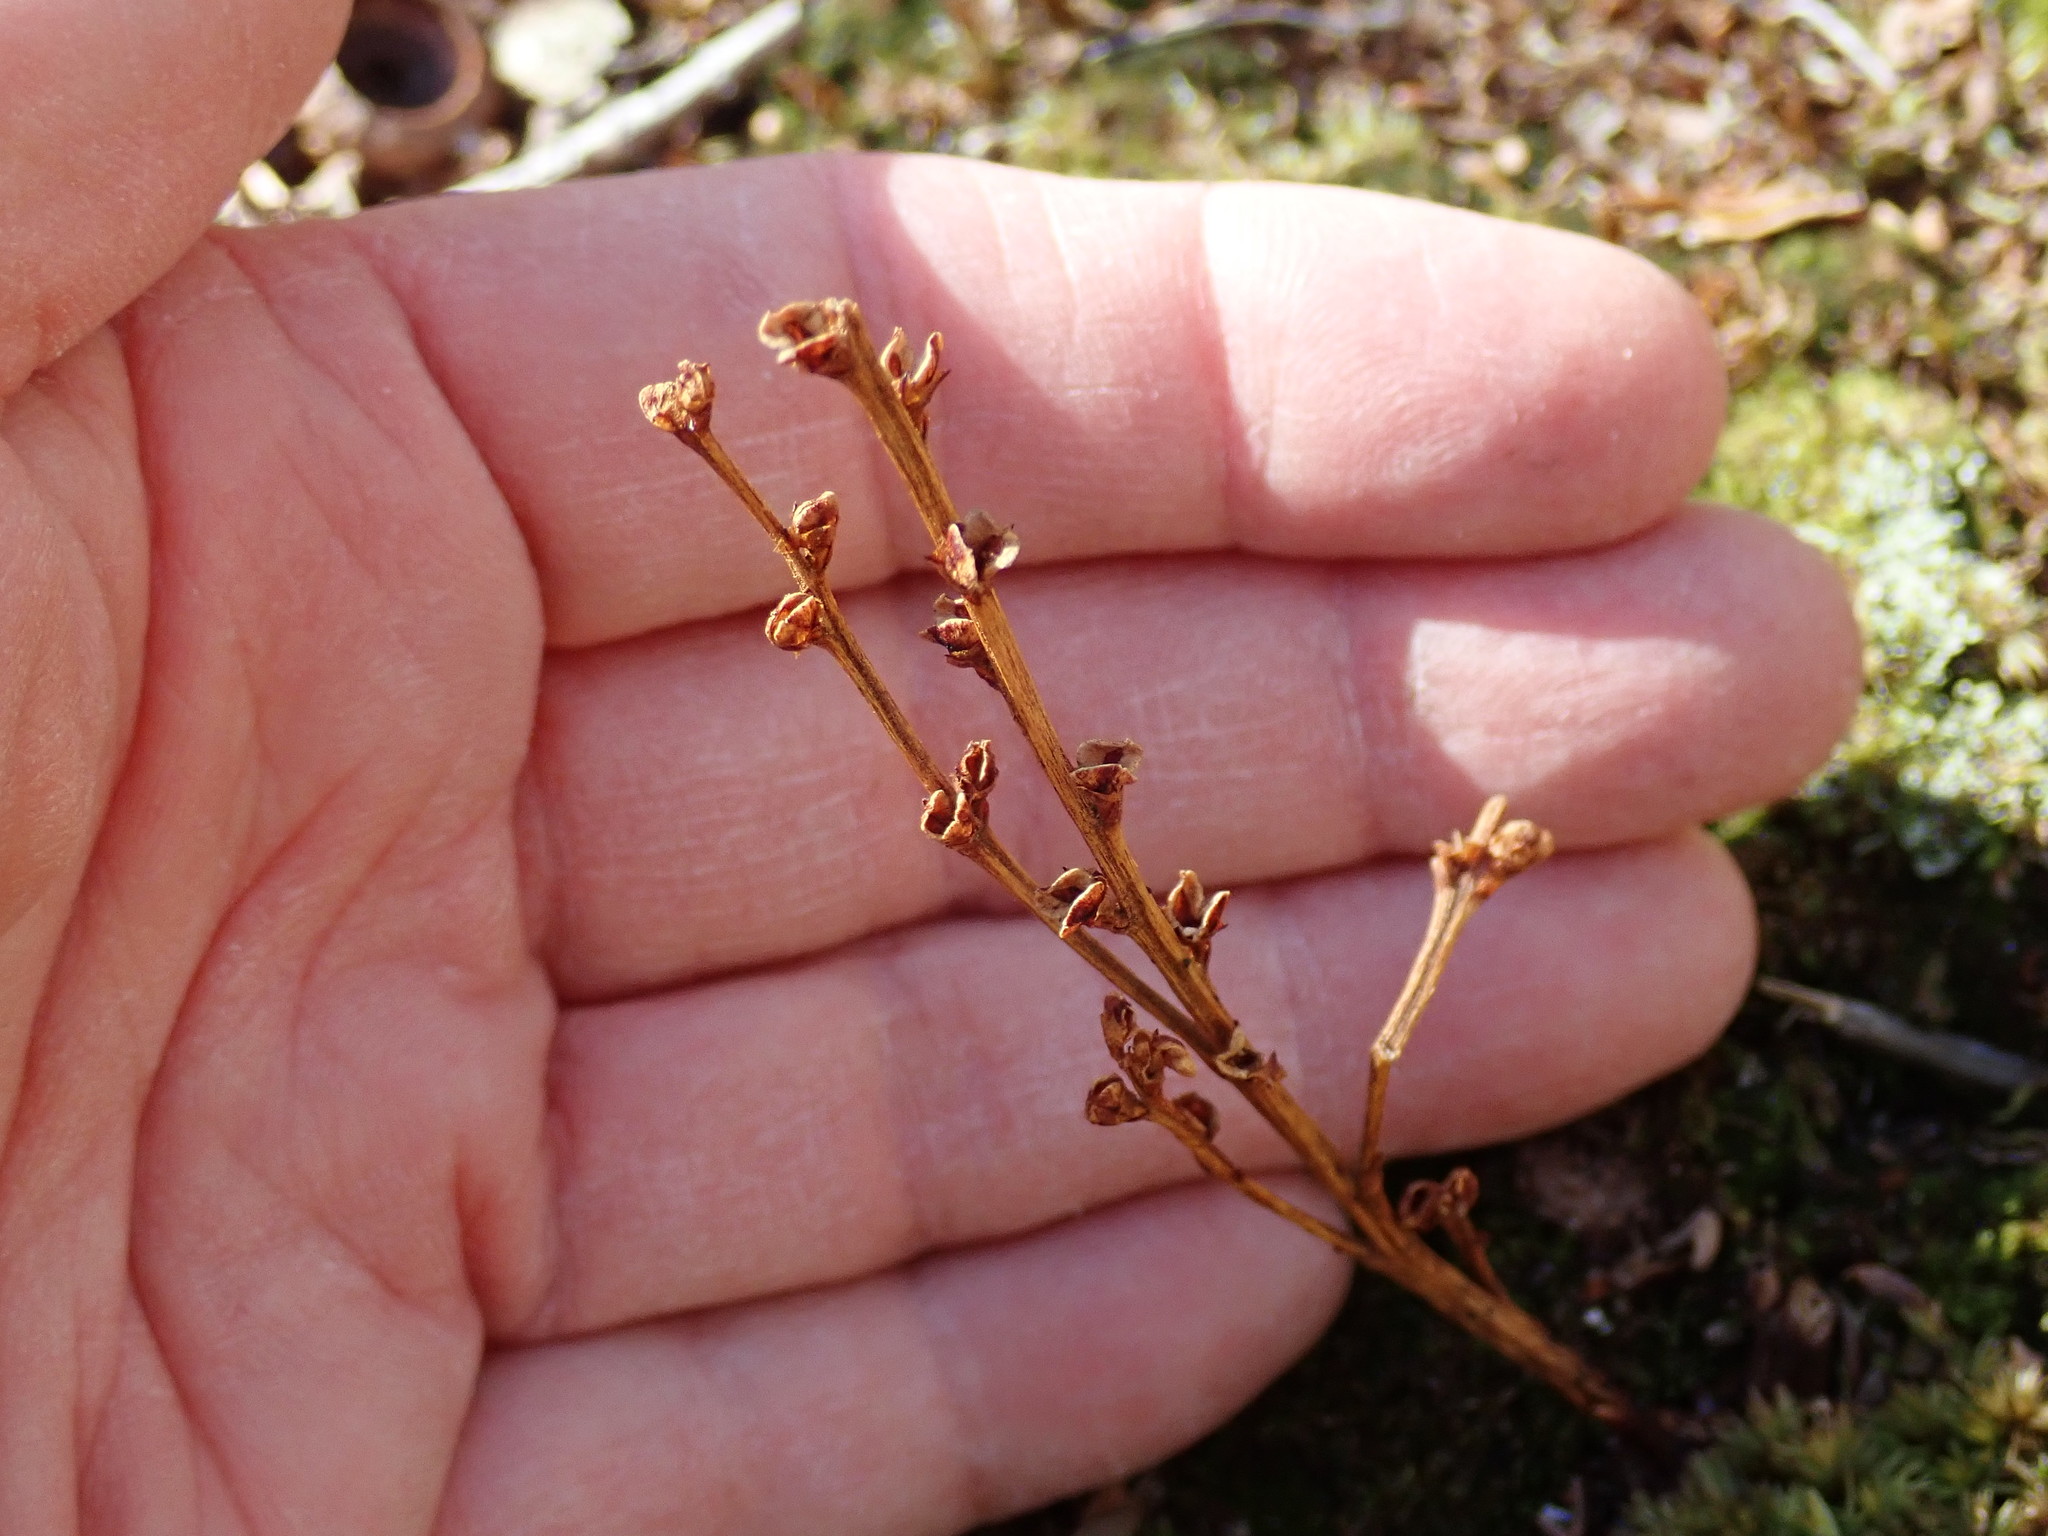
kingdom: Plantae
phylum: Tracheophyta
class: Magnoliopsida
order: Lamiales
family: Orobanchaceae
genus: Epifagus
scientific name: Epifagus virginiana
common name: Beechdrops
